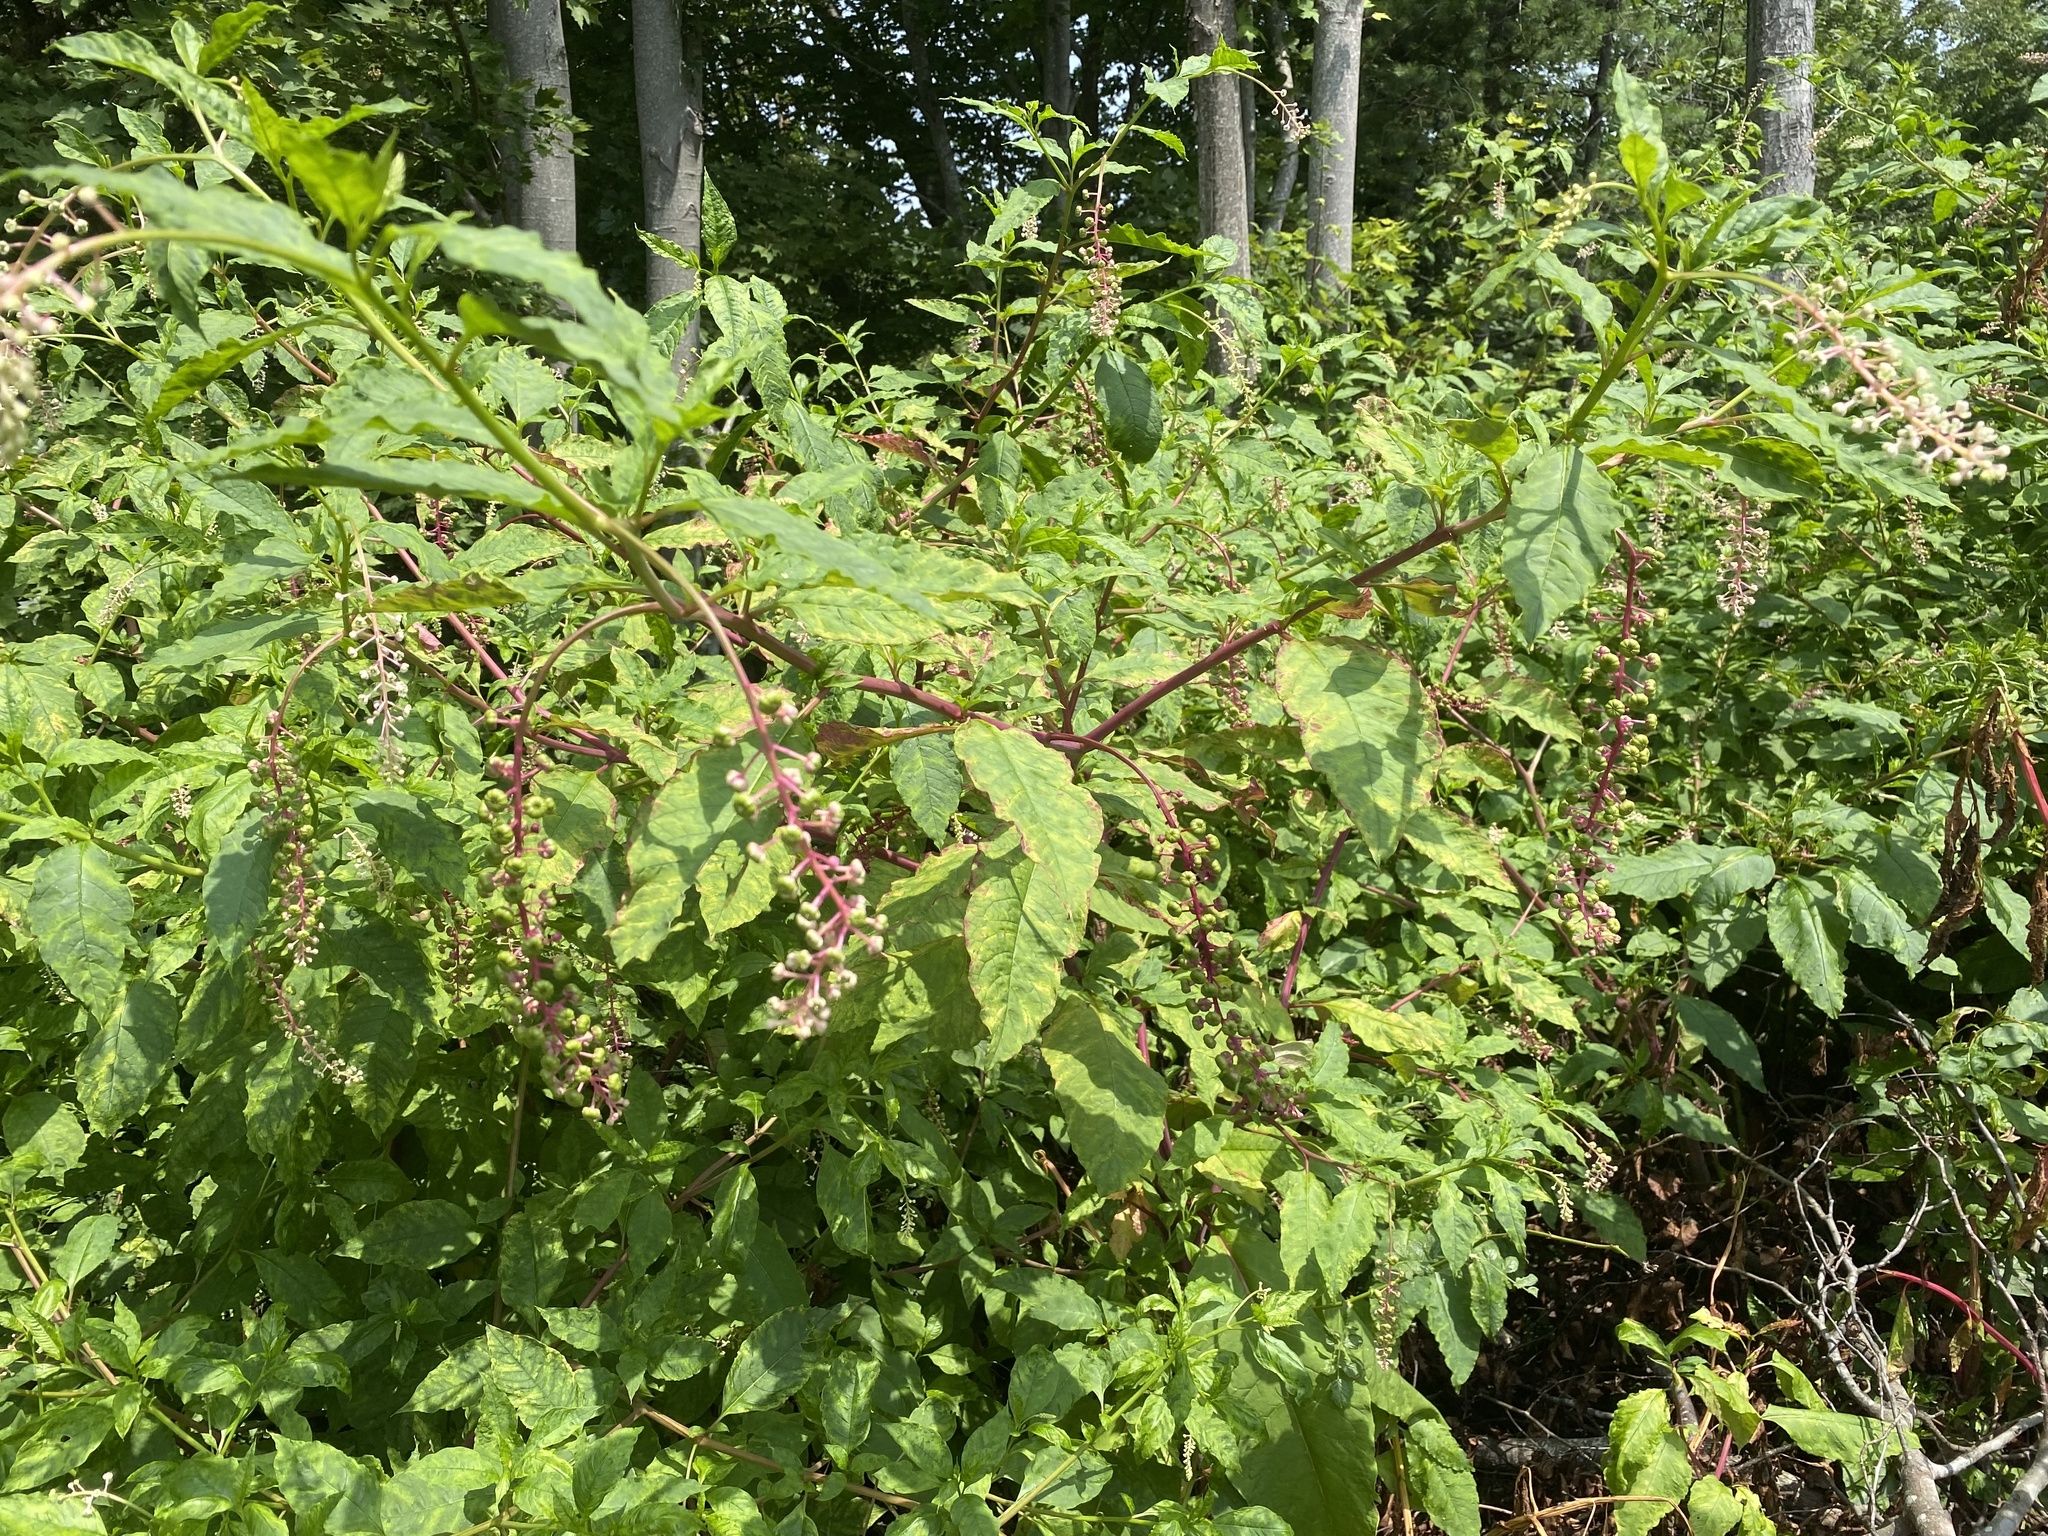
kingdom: Plantae
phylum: Tracheophyta
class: Magnoliopsida
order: Caryophyllales
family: Phytolaccaceae
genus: Phytolacca
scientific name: Phytolacca americana
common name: American pokeweed
